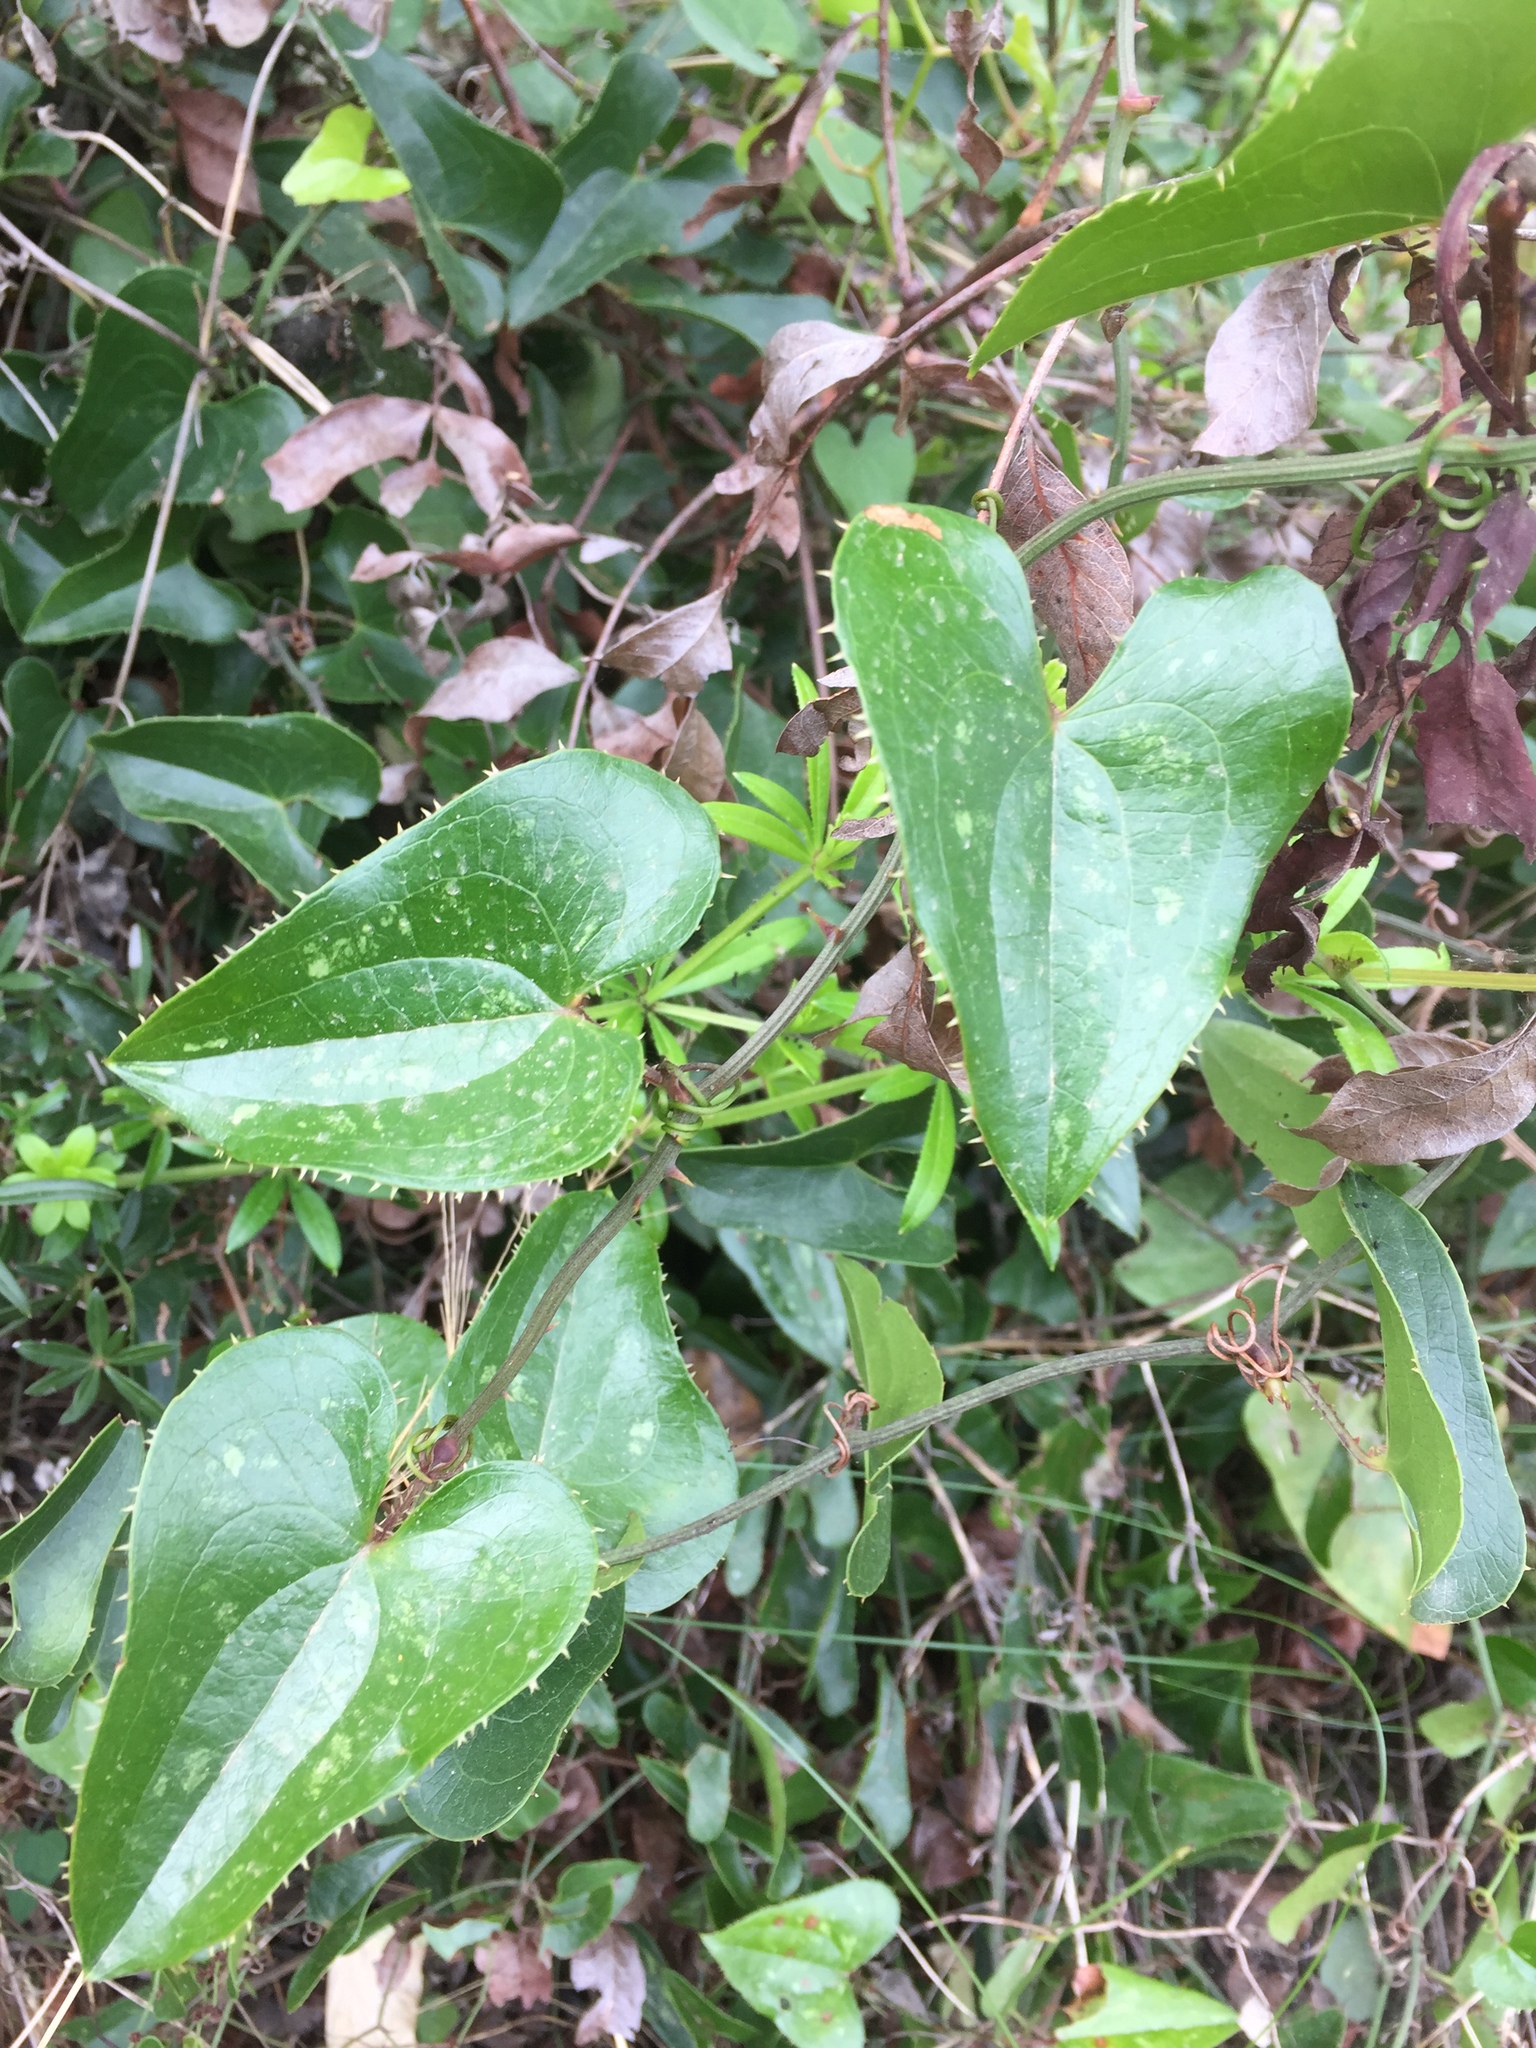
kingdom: Plantae
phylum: Tracheophyta
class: Liliopsida
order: Liliales
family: Smilacaceae
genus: Smilax
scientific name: Smilax aspera
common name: Common smilax
